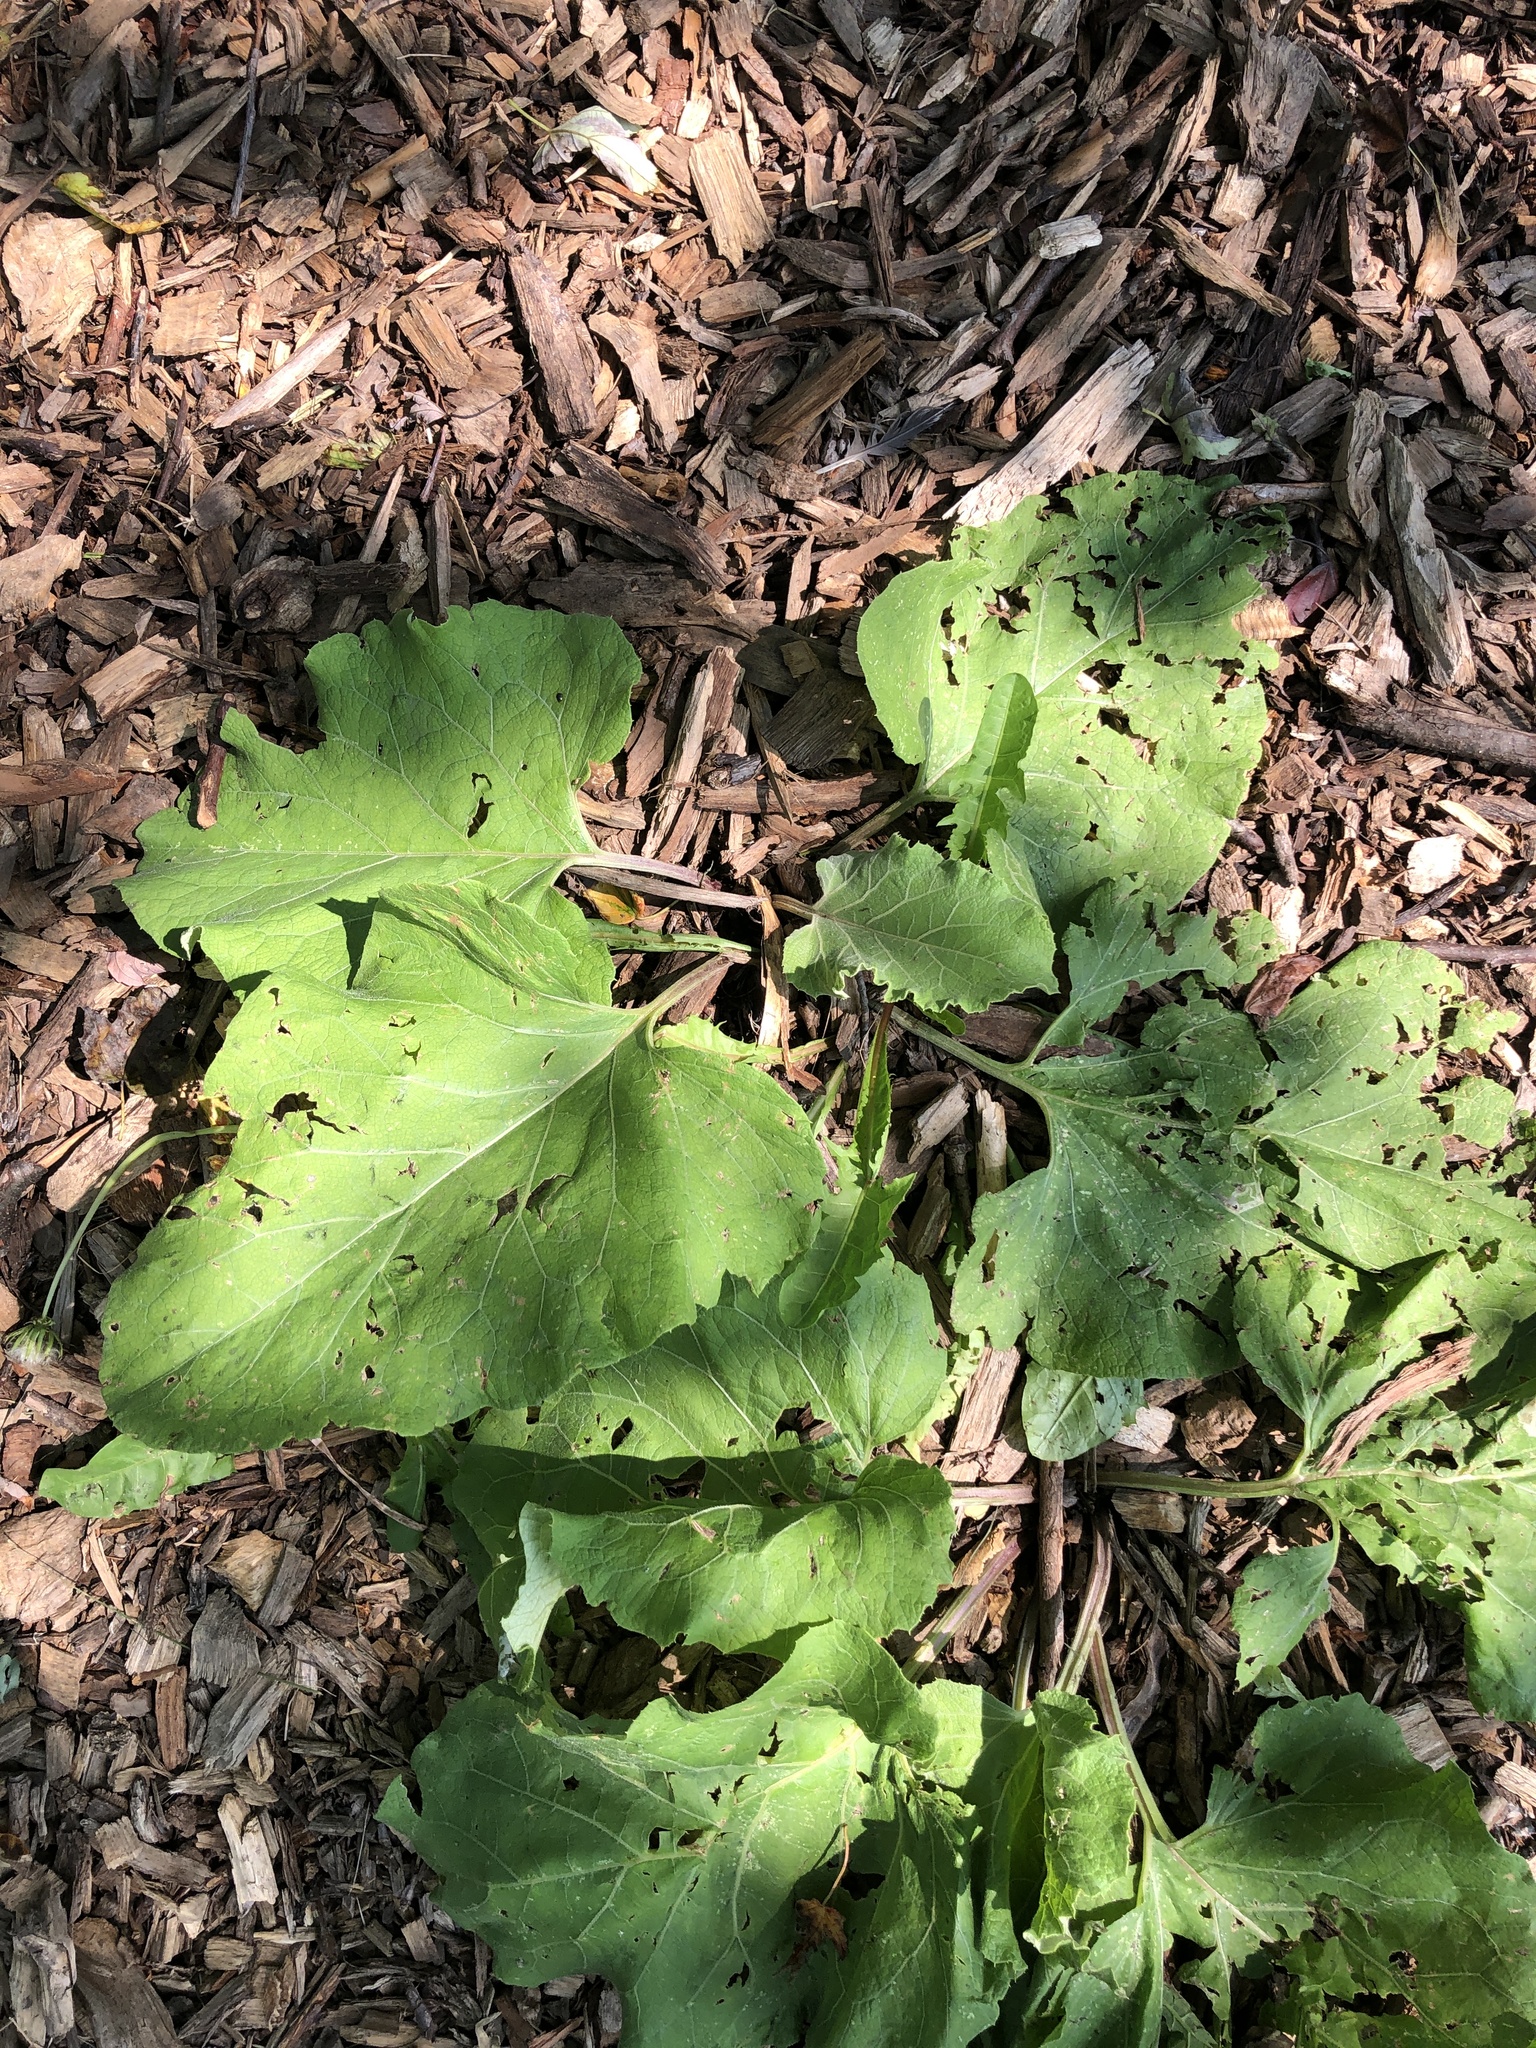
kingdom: Plantae
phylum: Tracheophyta
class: Magnoliopsida
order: Asterales
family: Asteraceae
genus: Arctium
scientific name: Arctium
